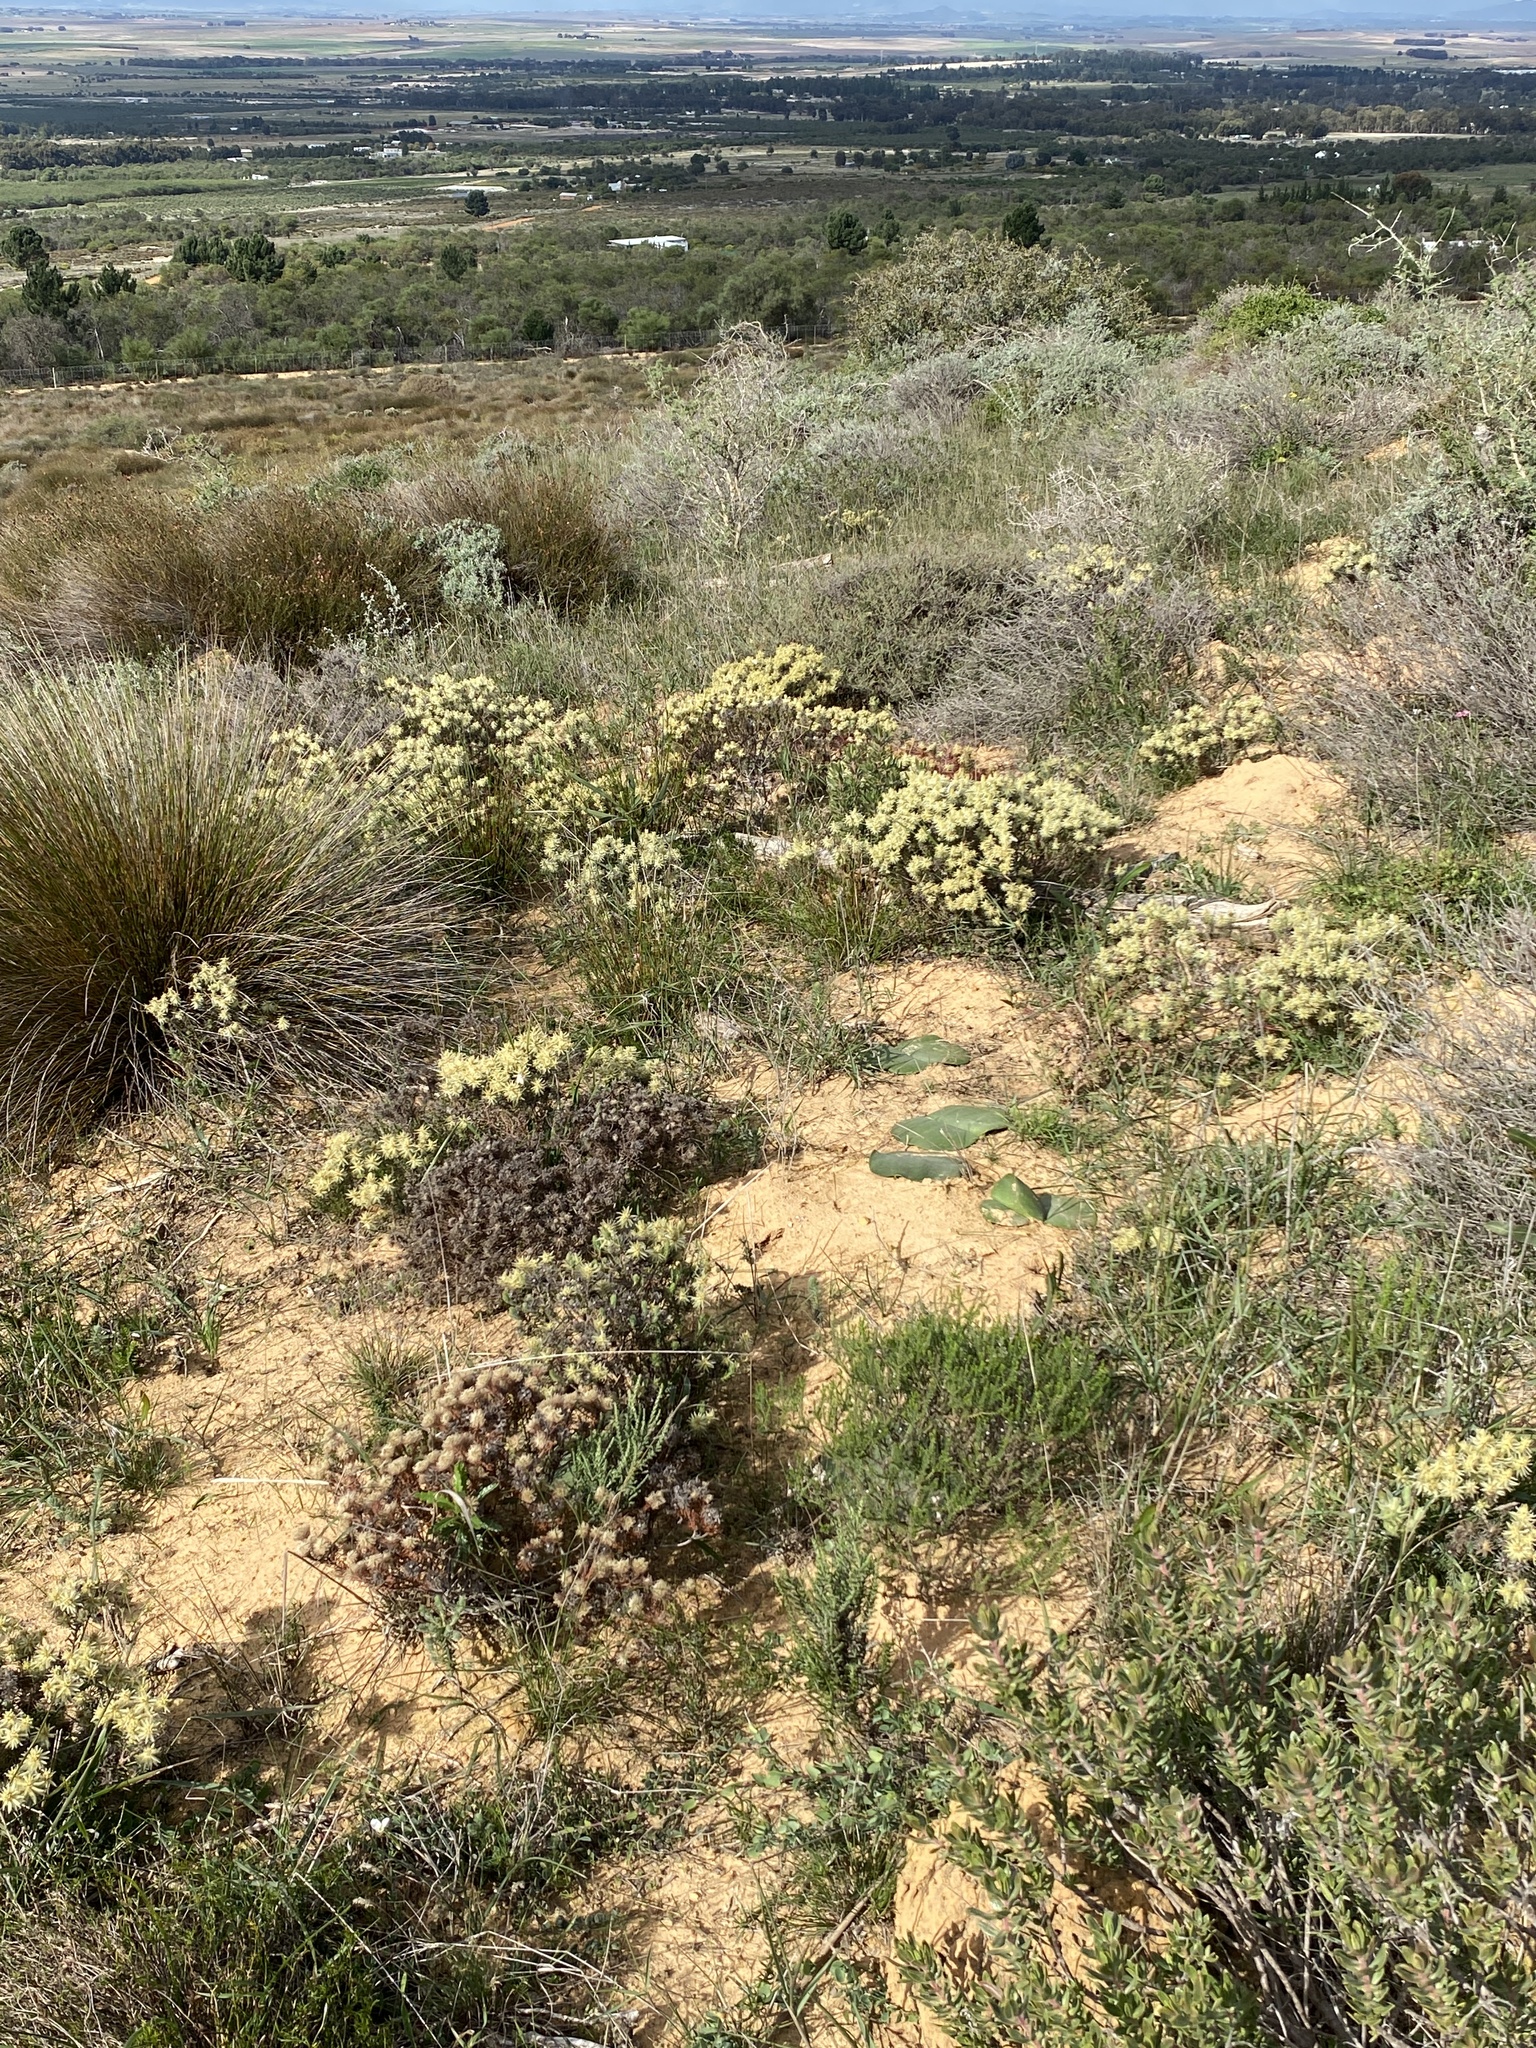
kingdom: Plantae
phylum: Tracheophyta
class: Magnoliopsida
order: Rosales
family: Rhamnaceae
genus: Phylica
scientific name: Phylica plumosa
